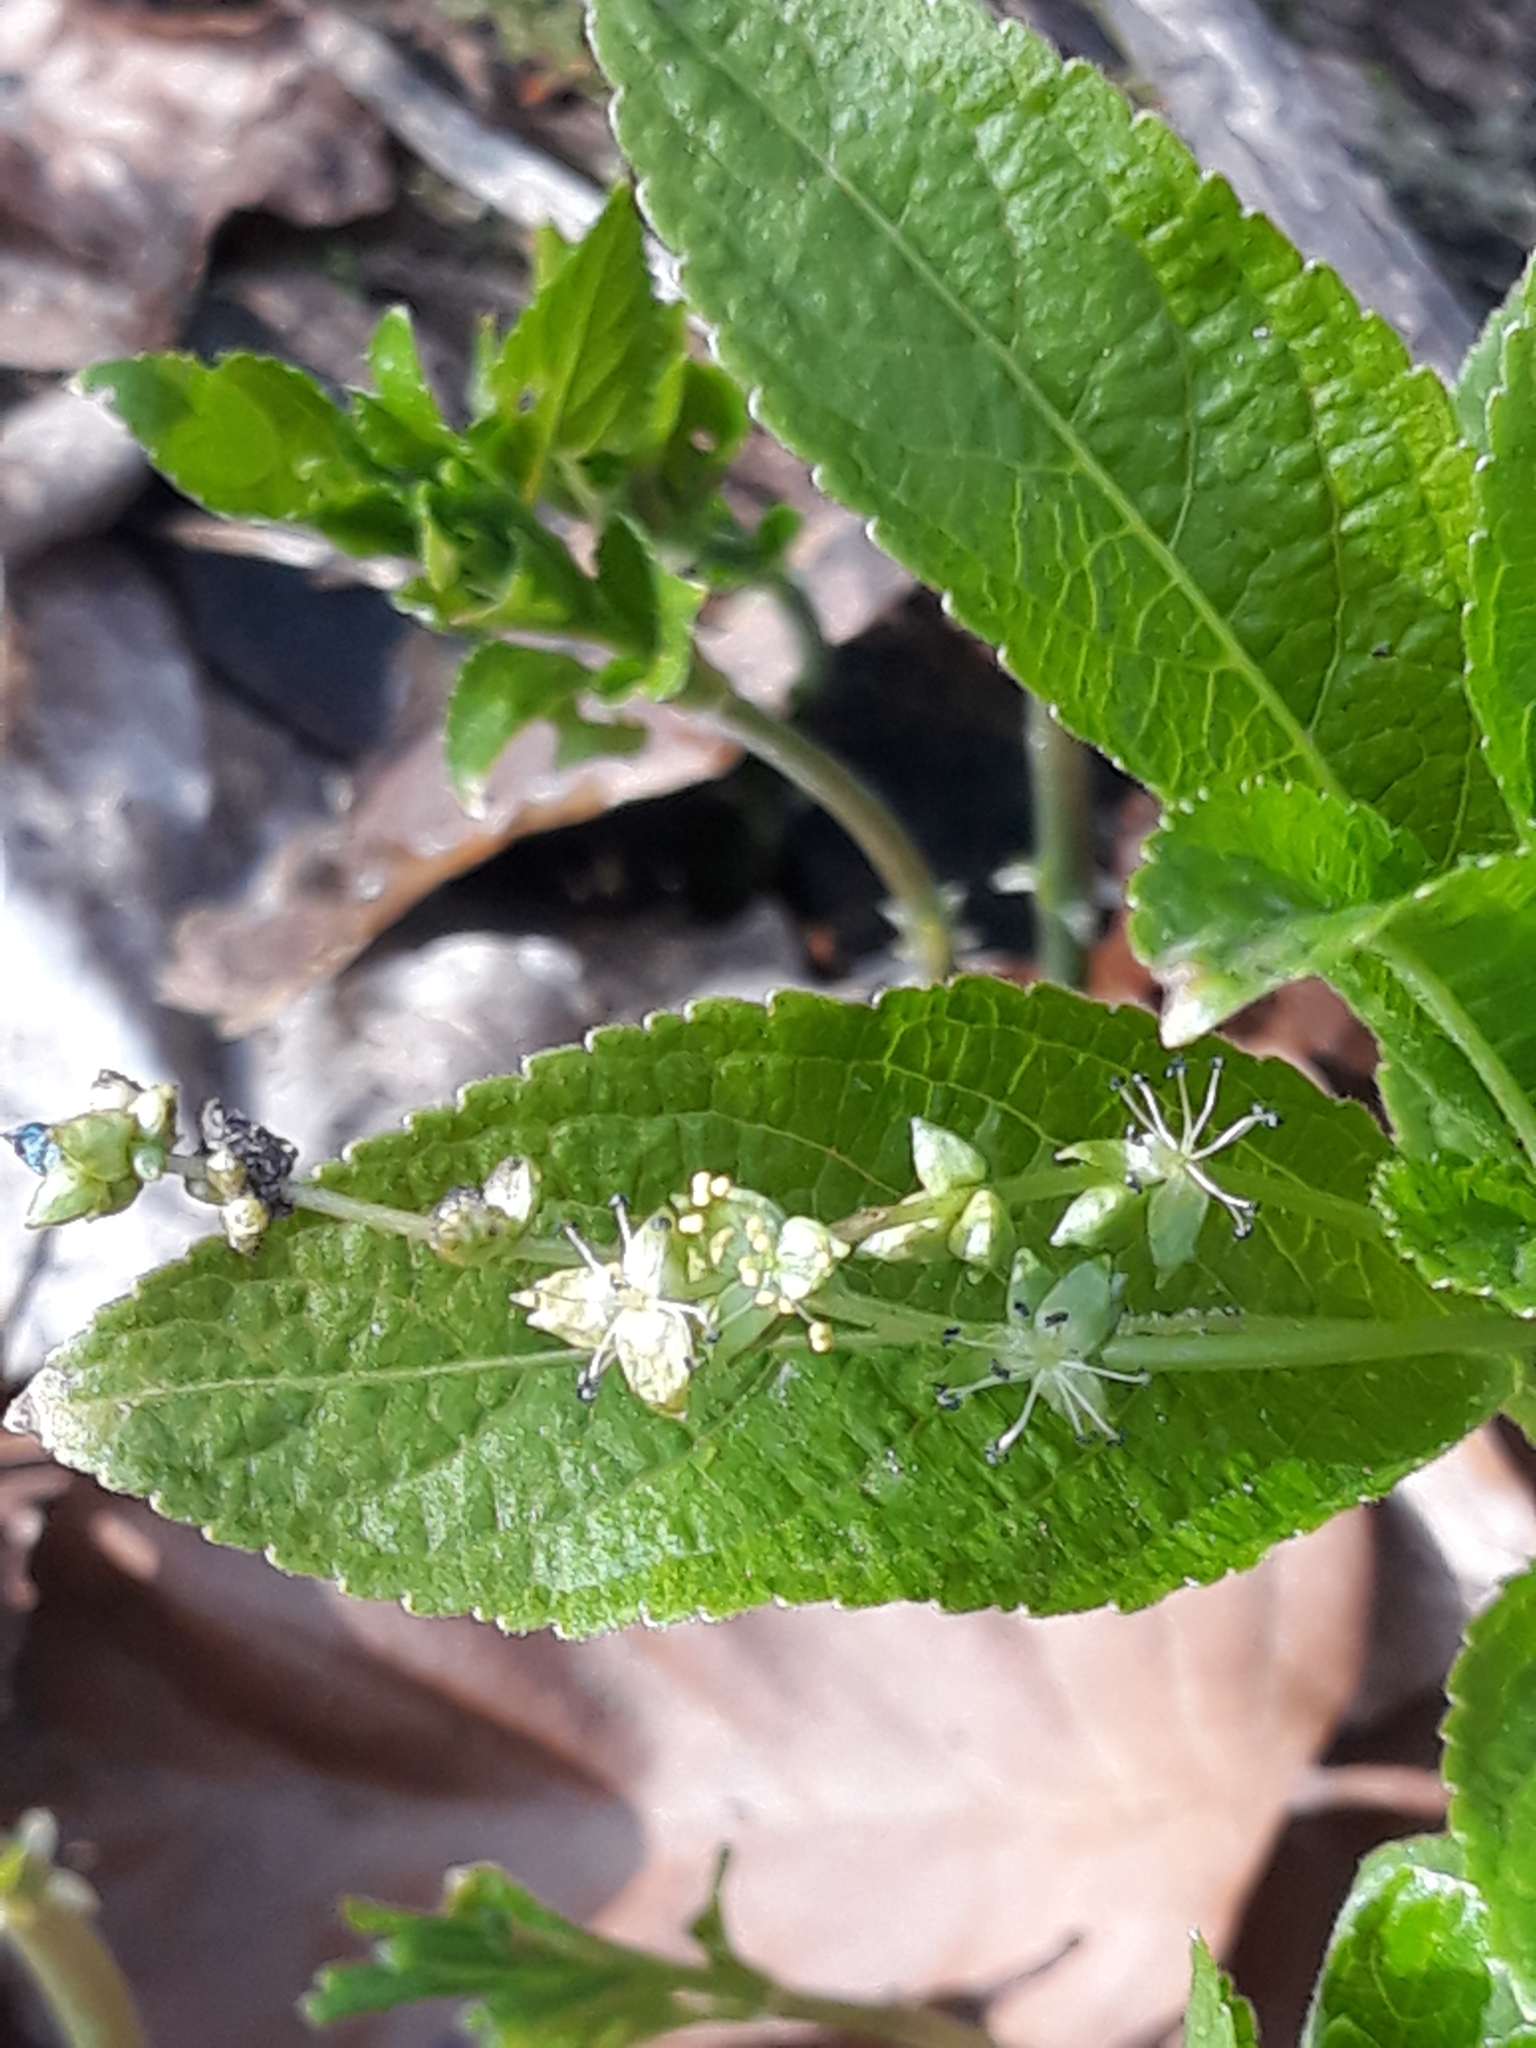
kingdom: Plantae
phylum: Tracheophyta
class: Magnoliopsida
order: Malpighiales
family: Euphorbiaceae
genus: Mercurialis
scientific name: Mercurialis perennis
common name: Dog mercury
